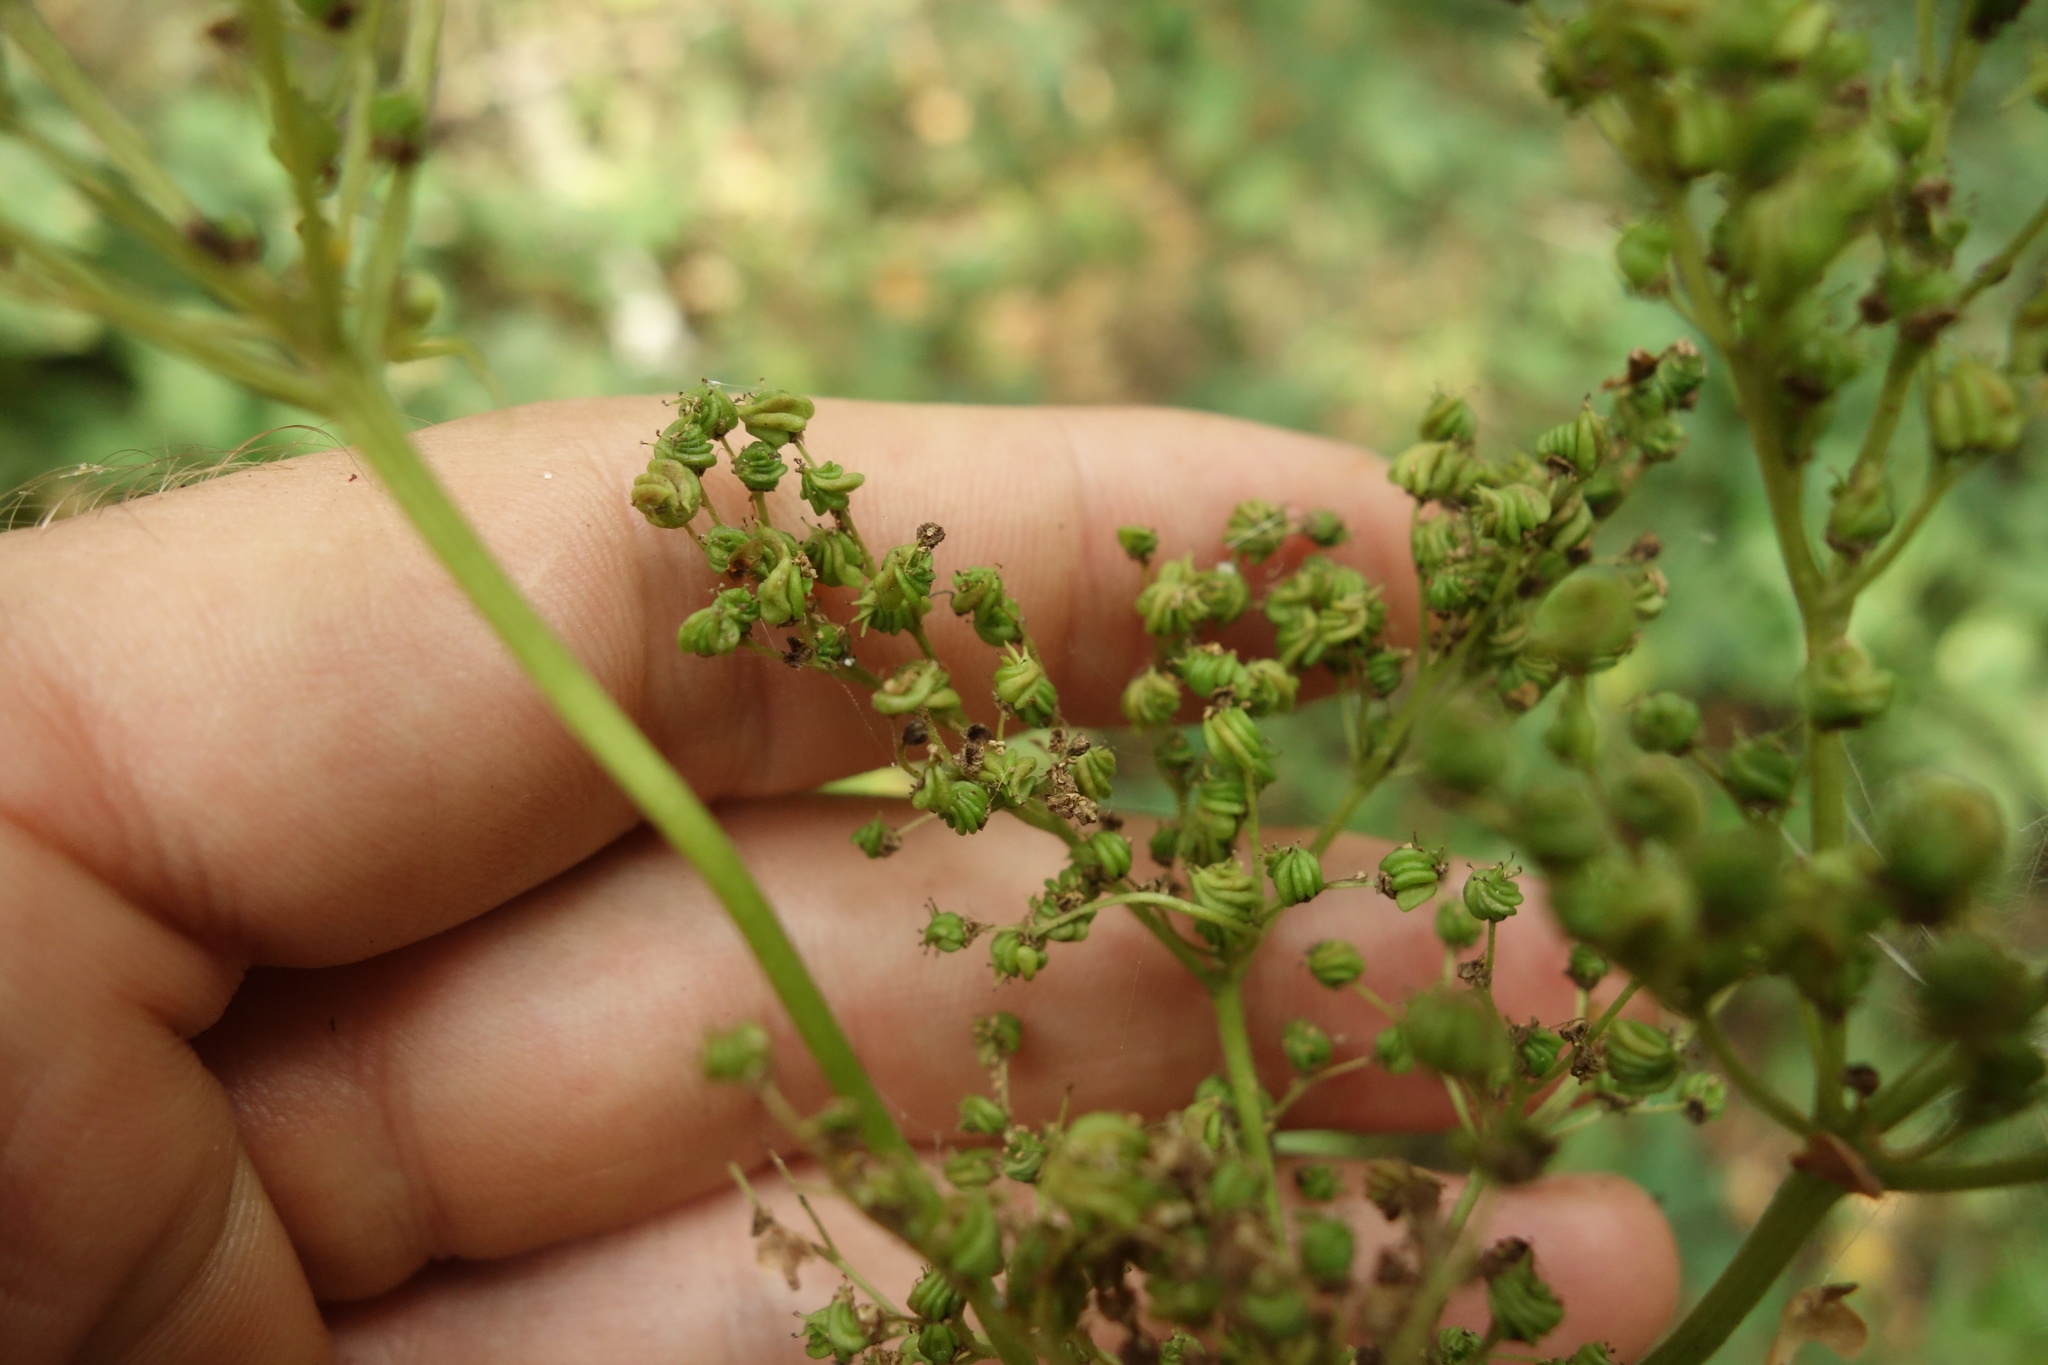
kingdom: Plantae
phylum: Tracheophyta
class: Magnoliopsida
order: Rosales
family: Rosaceae
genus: Filipendula
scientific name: Filipendula ulmaria
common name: Meadowsweet
